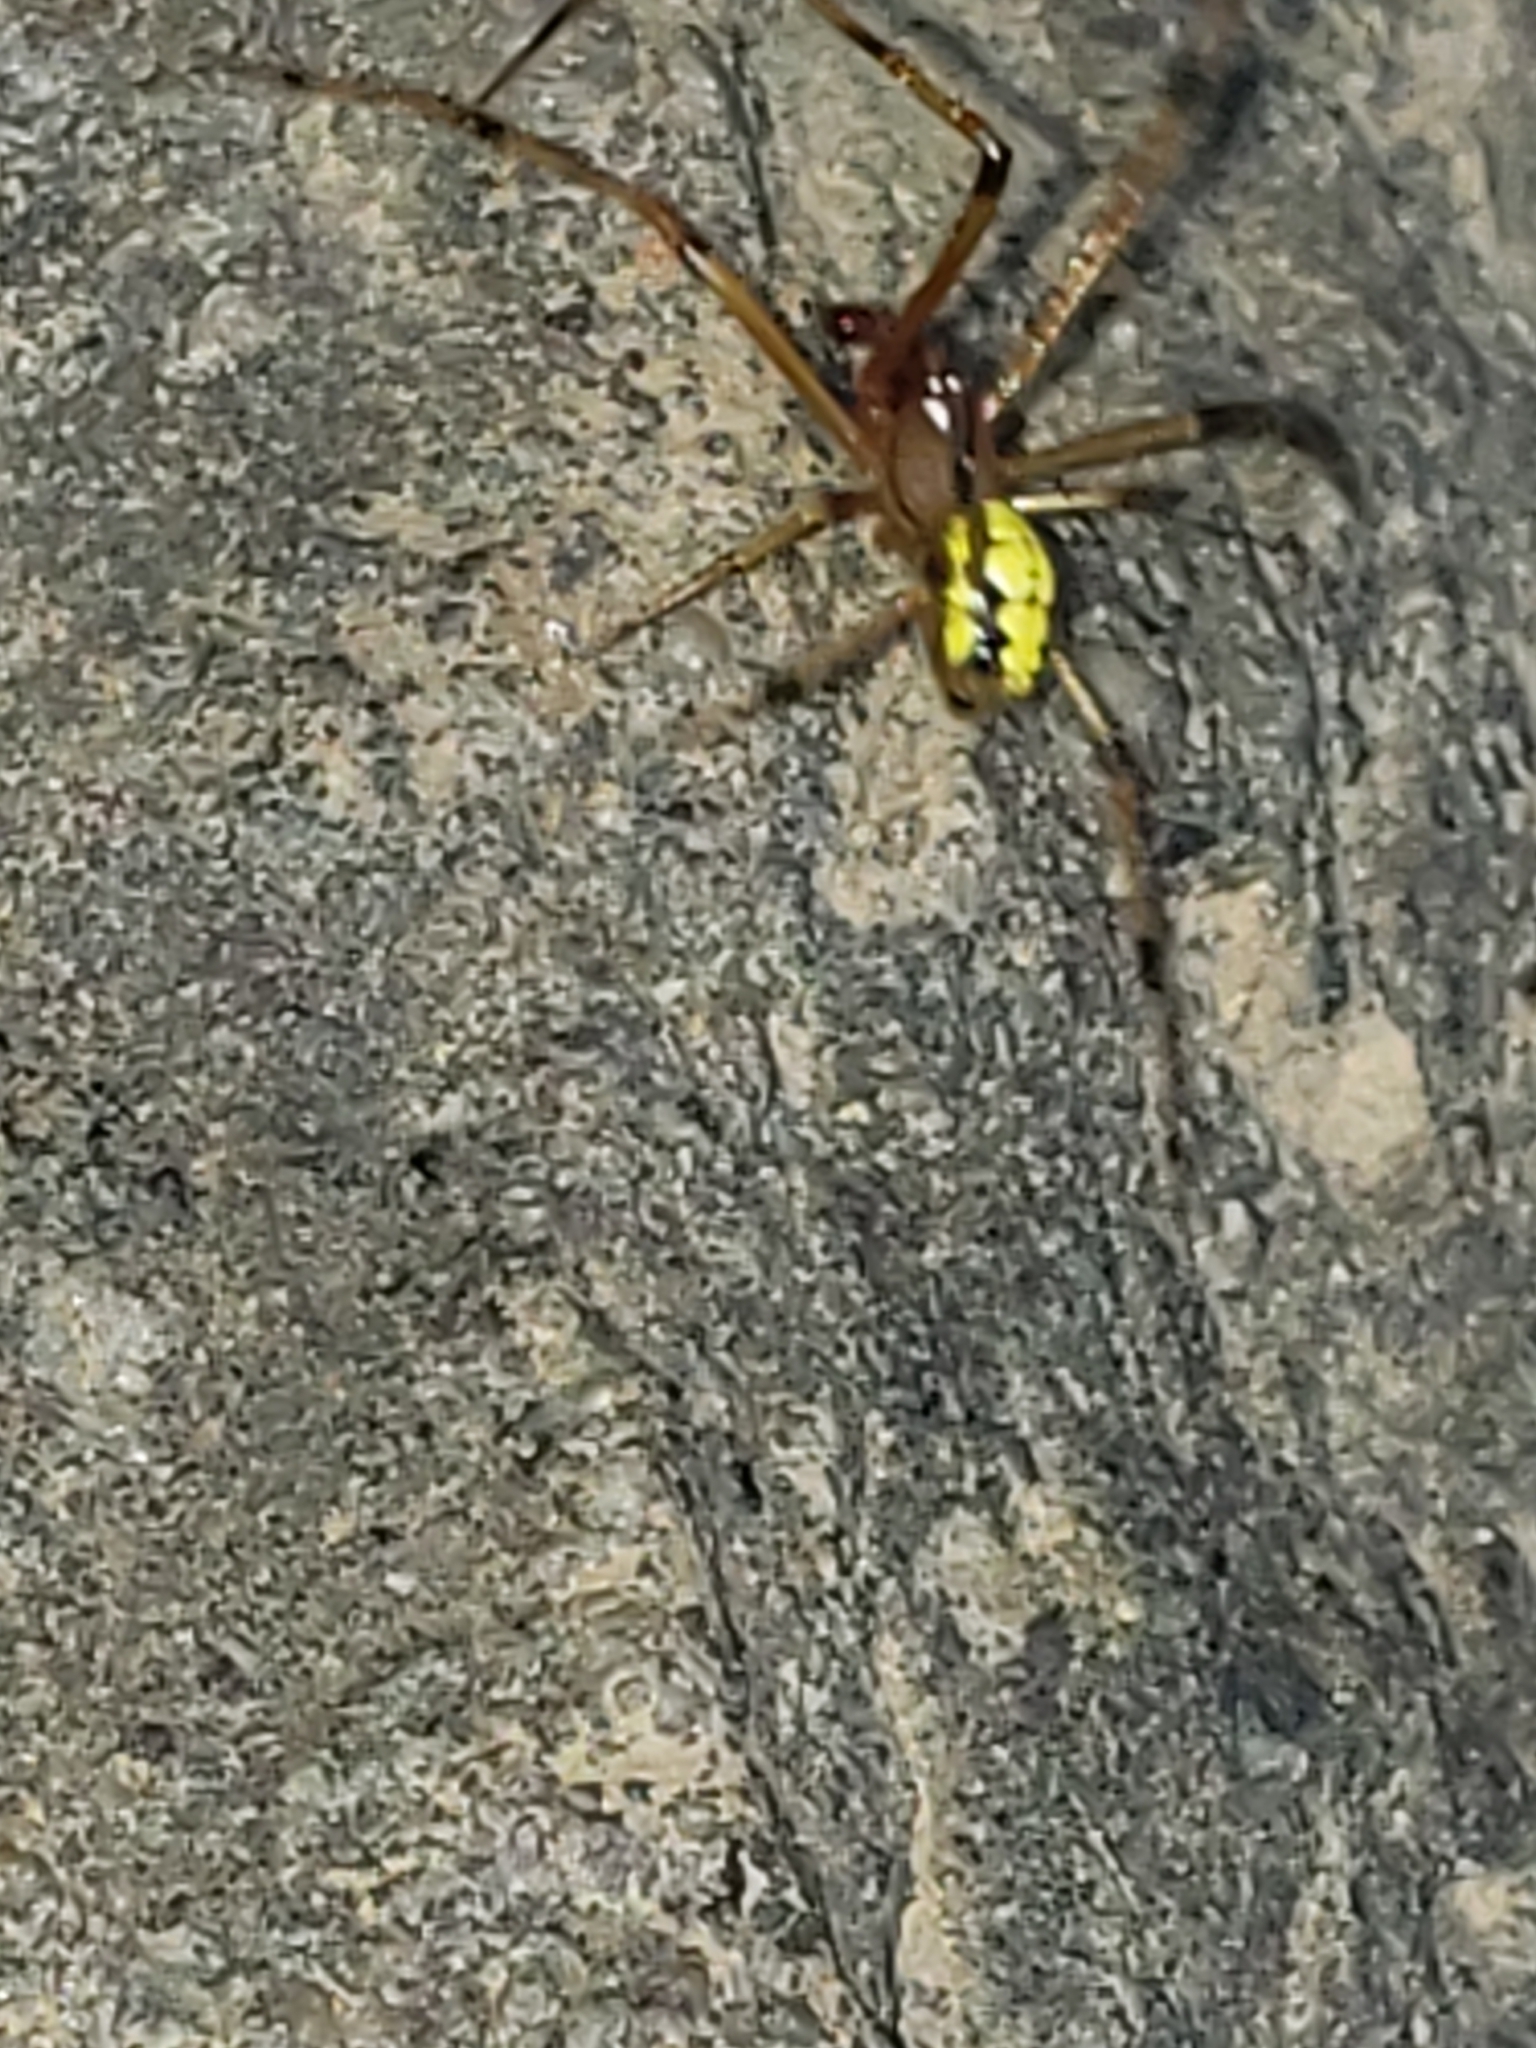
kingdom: Animalia
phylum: Arthropoda
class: Arachnida
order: Araneae
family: Theridiidae
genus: Phylloneta
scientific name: Phylloneta pictipes
